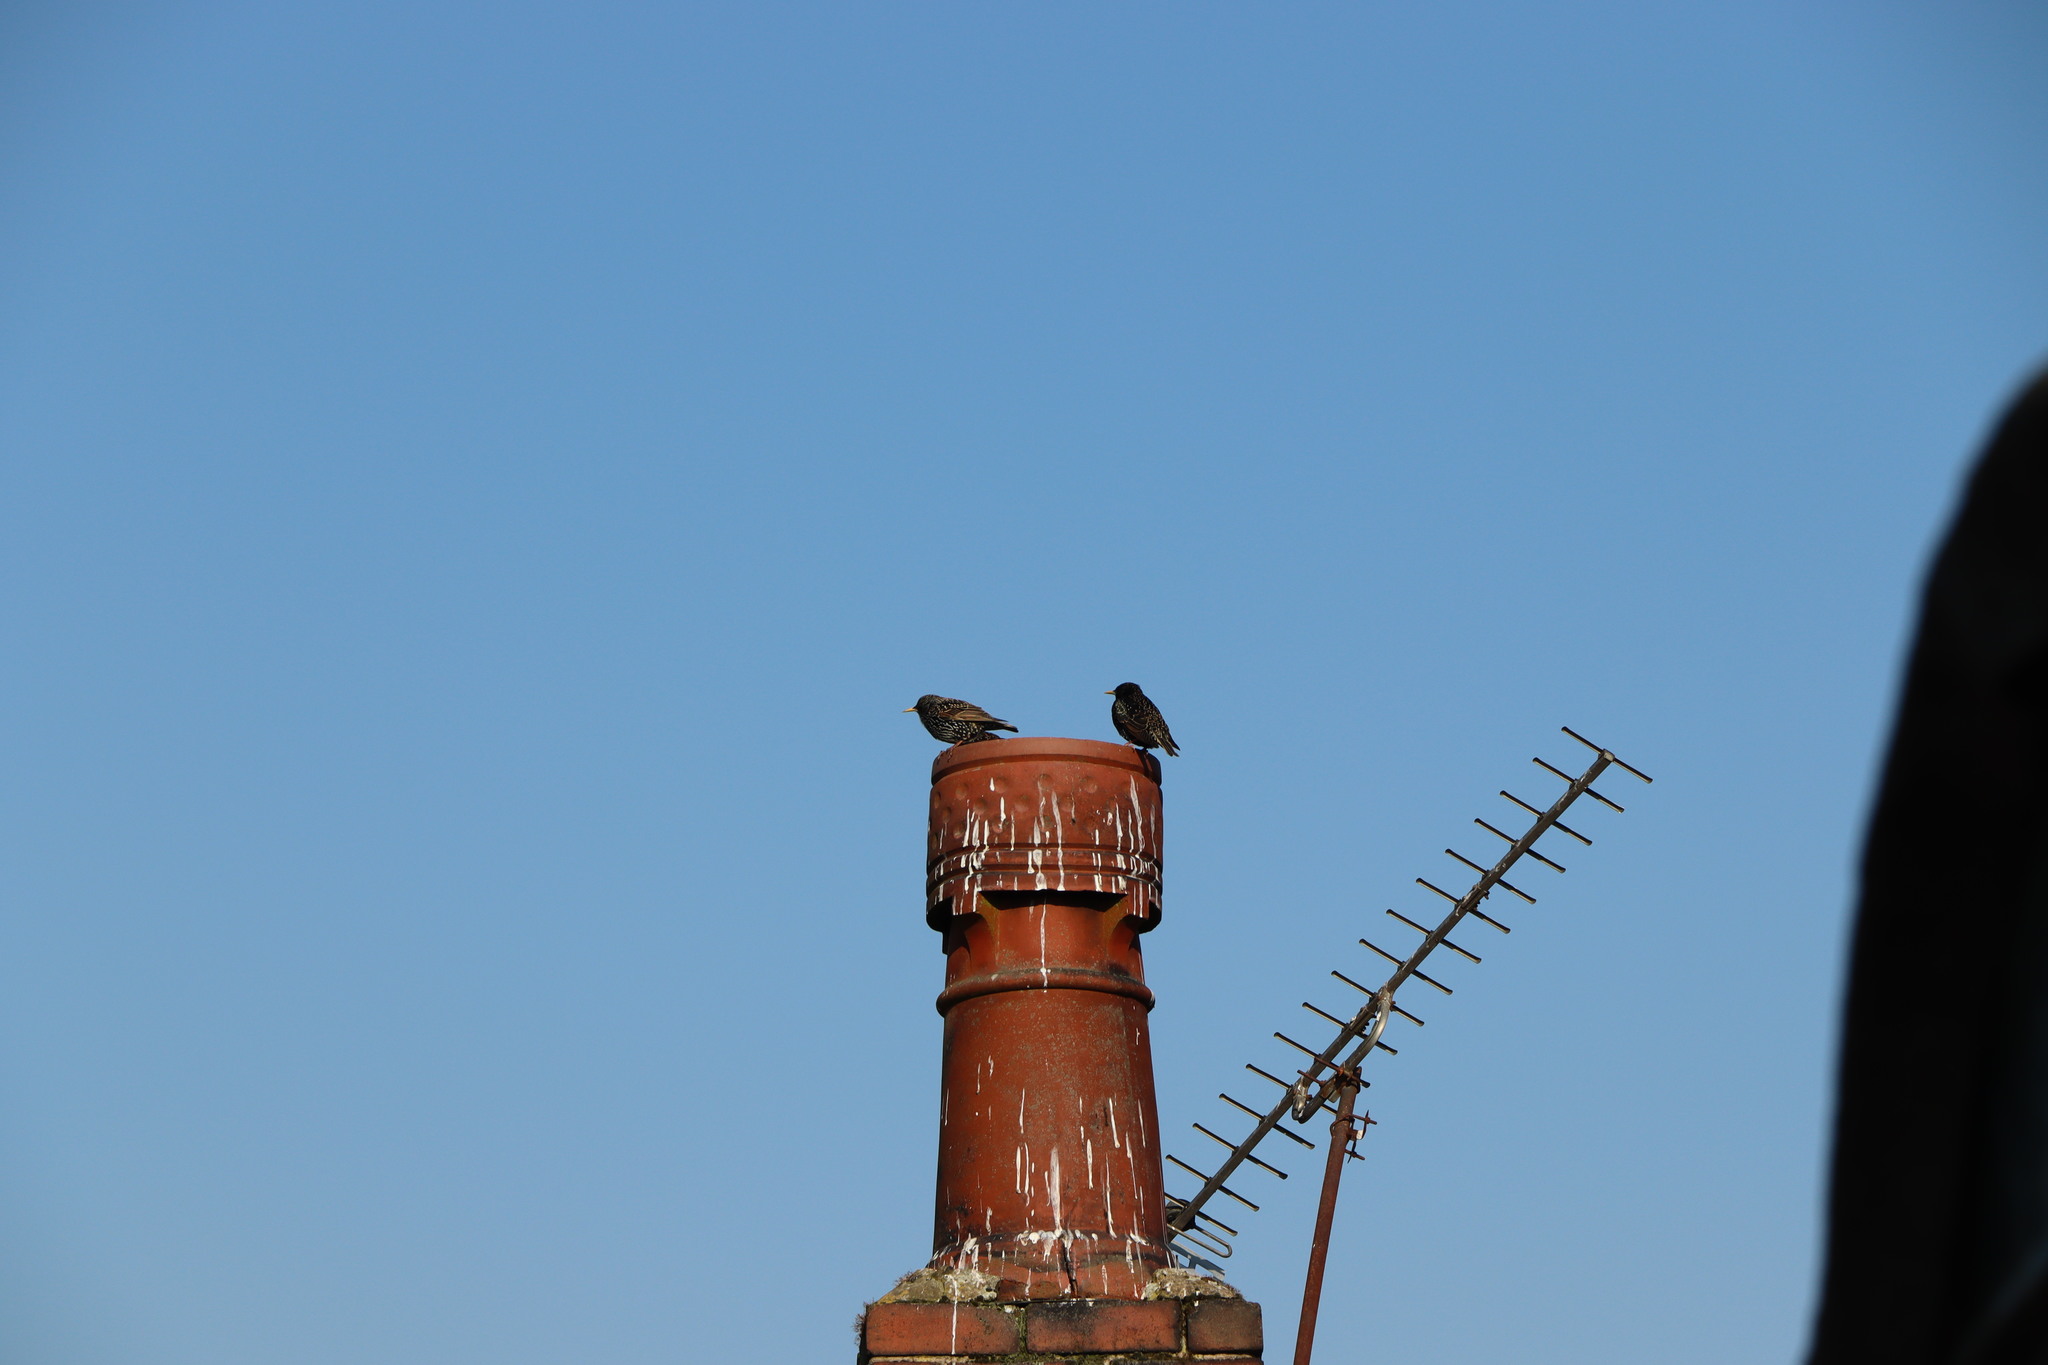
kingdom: Animalia
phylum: Chordata
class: Aves
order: Passeriformes
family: Sturnidae
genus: Sturnus
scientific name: Sturnus vulgaris
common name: Common starling
